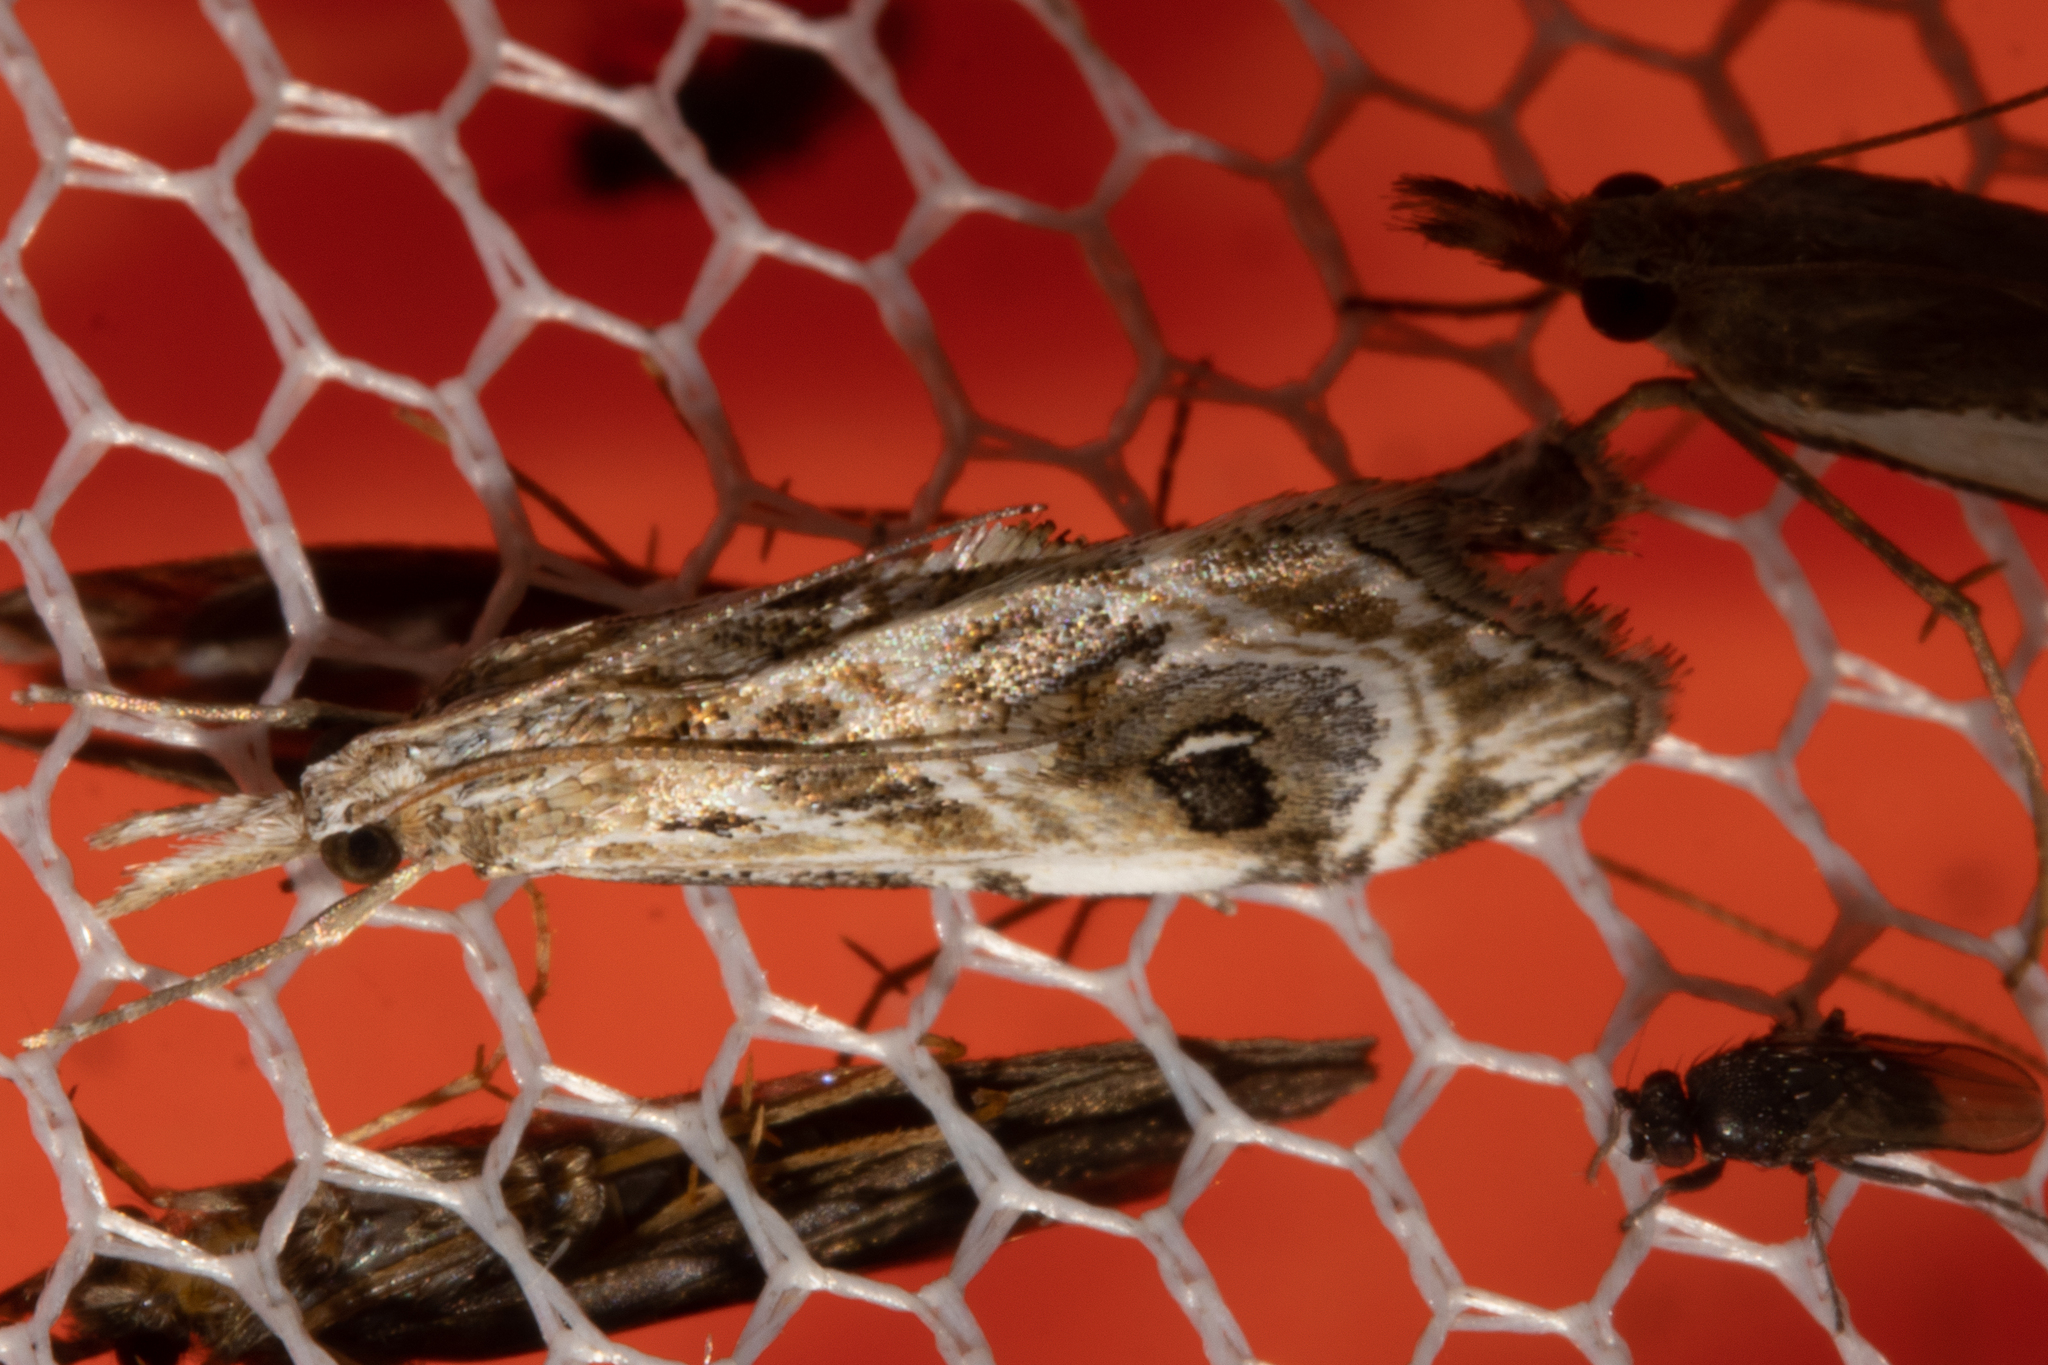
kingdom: Animalia
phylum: Arthropoda
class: Insecta
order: Lepidoptera
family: Crambidae
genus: Gadira
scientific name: Gadira acerella
